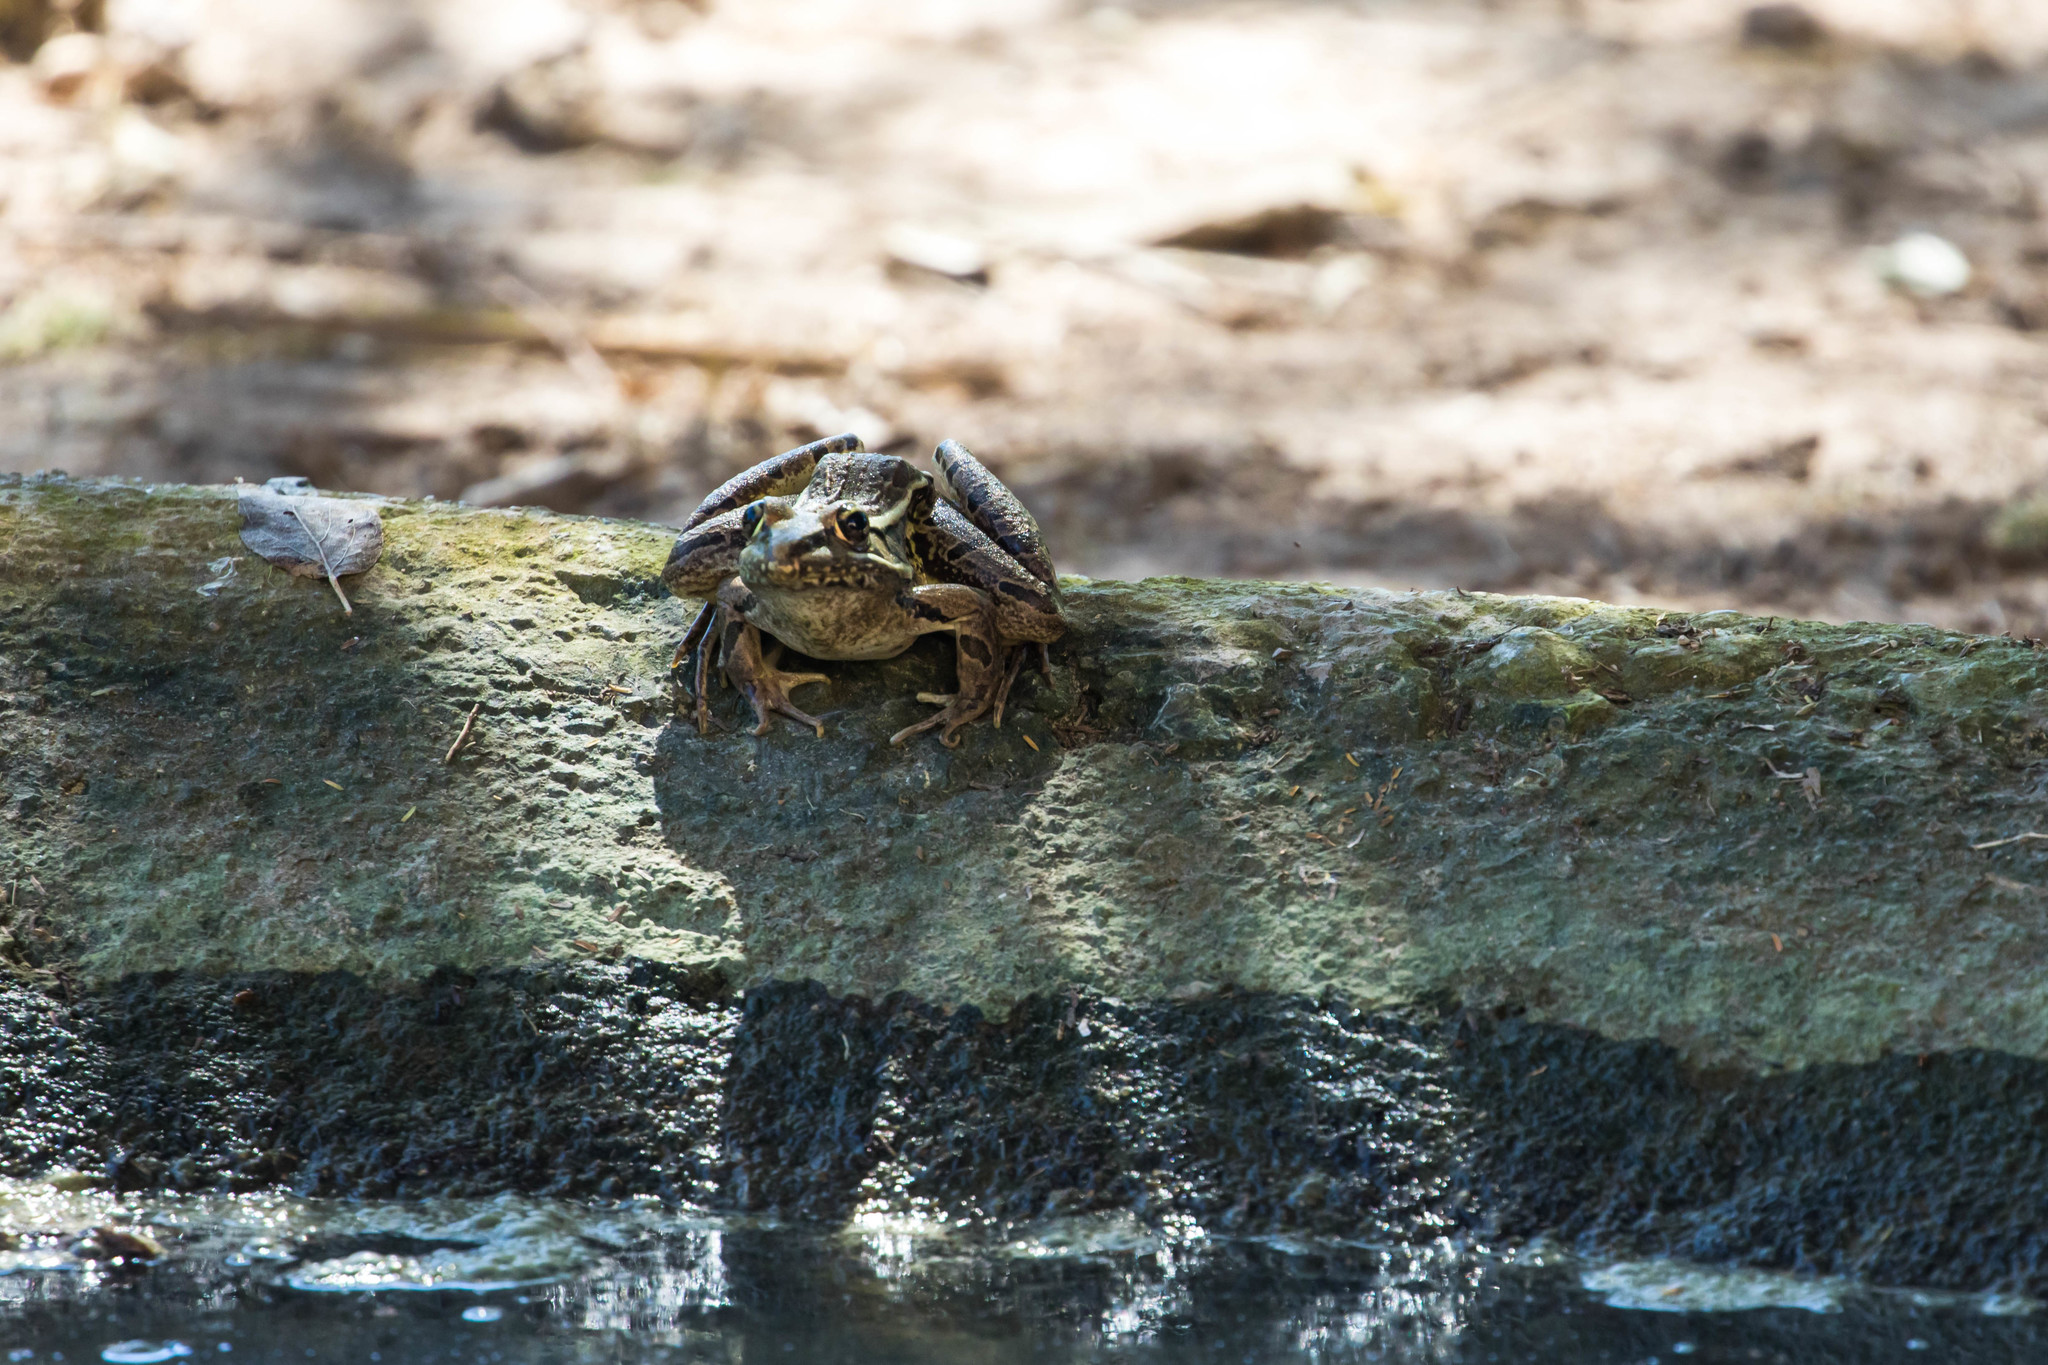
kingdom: Animalia
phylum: Chordata
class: Amphibia
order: Anura
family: Ranidae
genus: Lithobates
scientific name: Lithobates berlandieri
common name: Rio grande leopard frog
